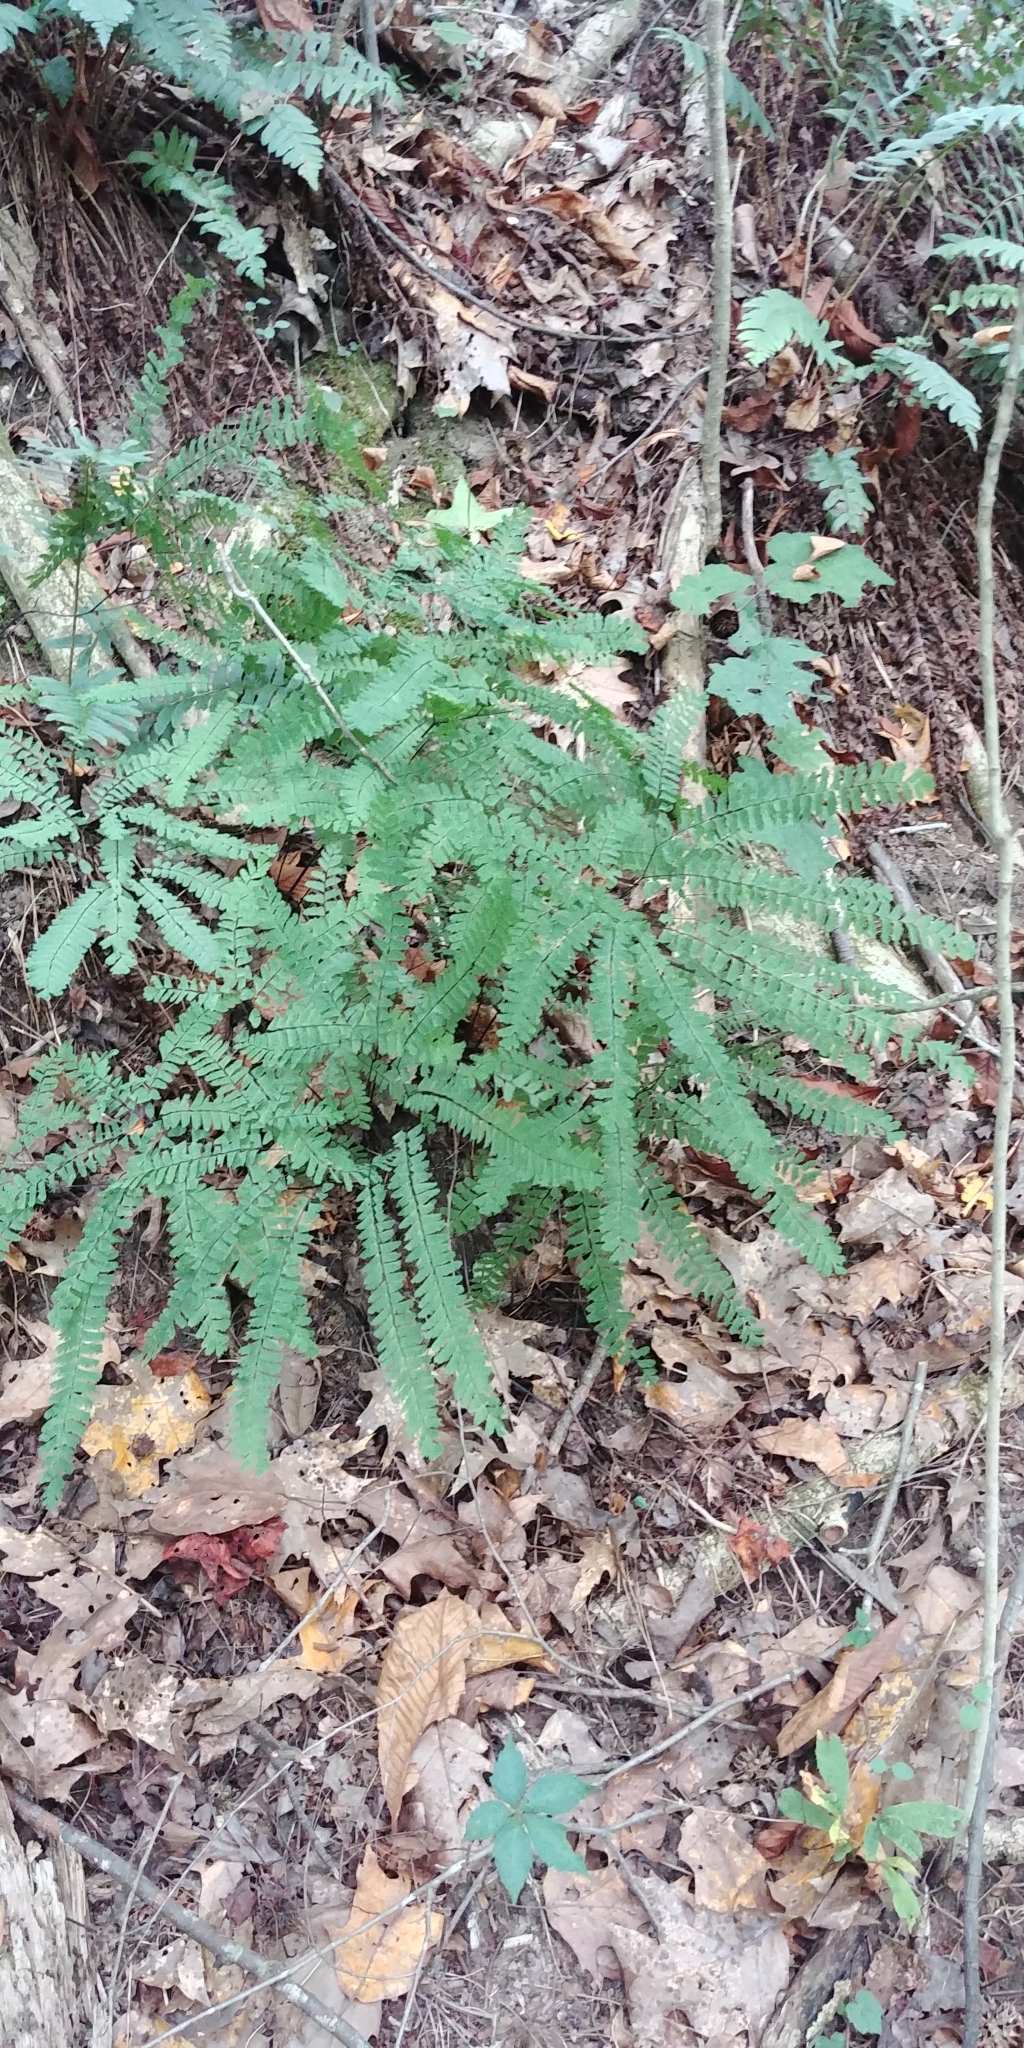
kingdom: Plantae
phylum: Tracheophyta
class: Polypodiopsida
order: Polypodiales
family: Pteridaceae
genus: Adiantum
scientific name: Adiantum pedatum
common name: Five-finger fern
